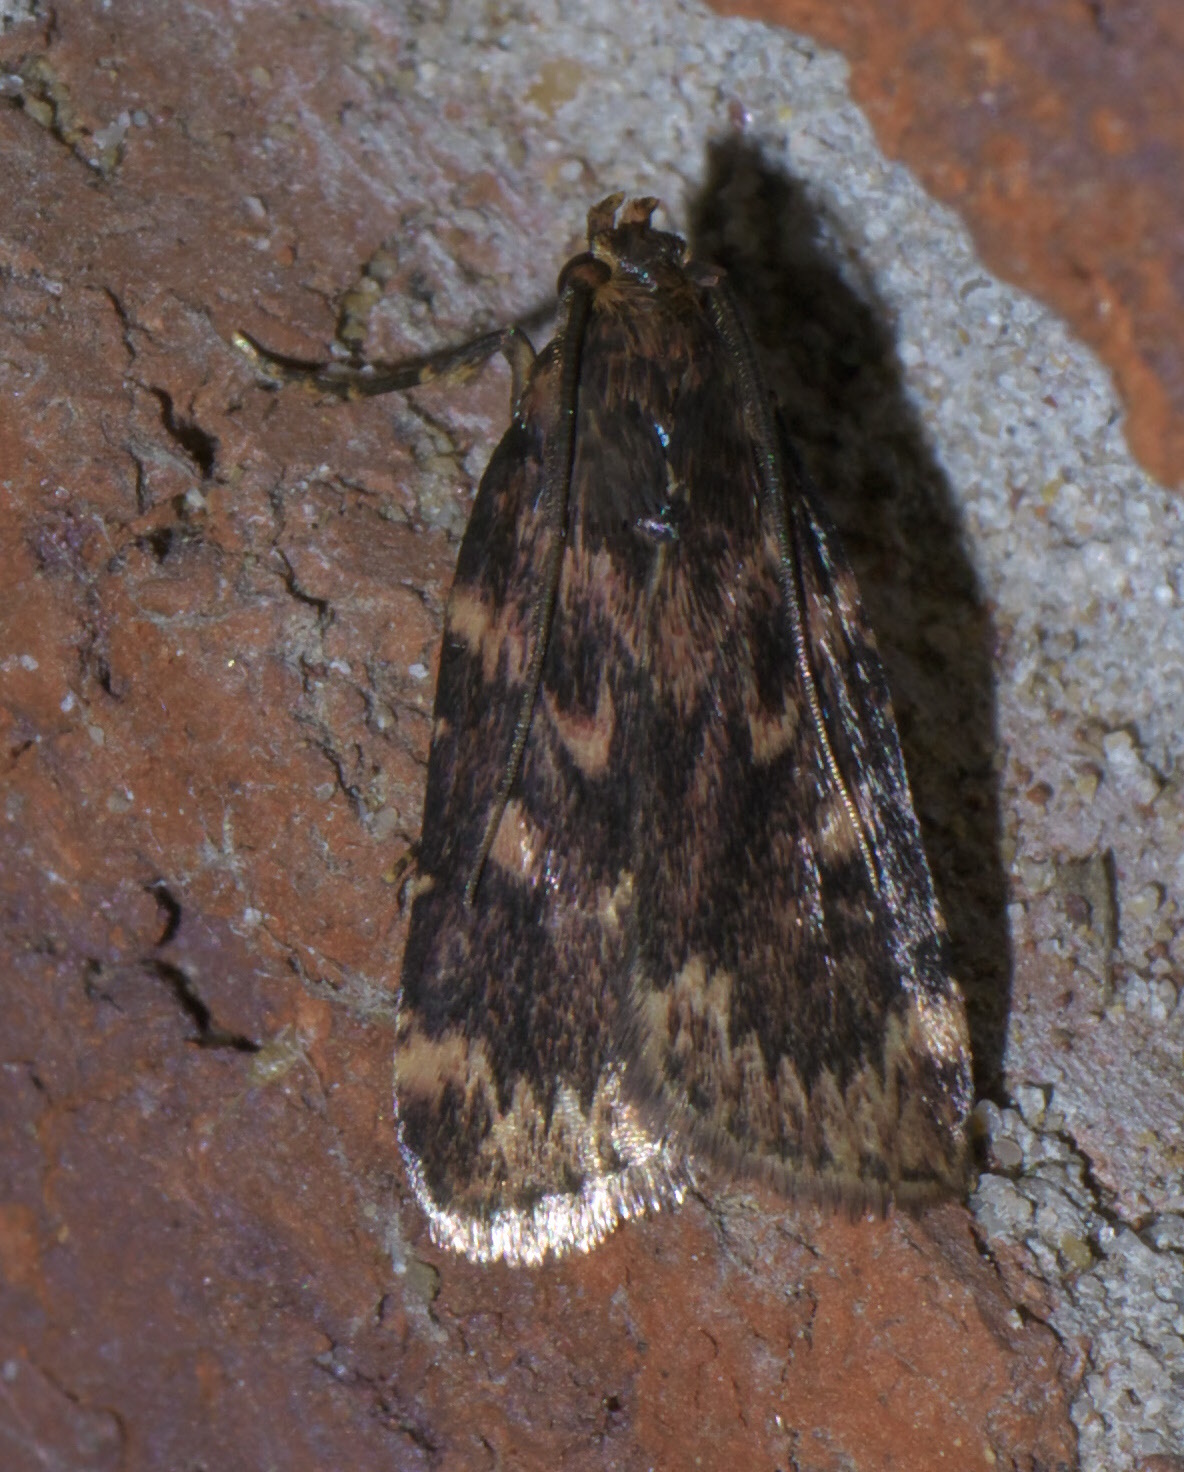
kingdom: Animalia
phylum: Arthropoda
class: Insecta
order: Lepidoptera
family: Pyralidae
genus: Aglossa
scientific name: Aglossa cuprina
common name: Grease moth
